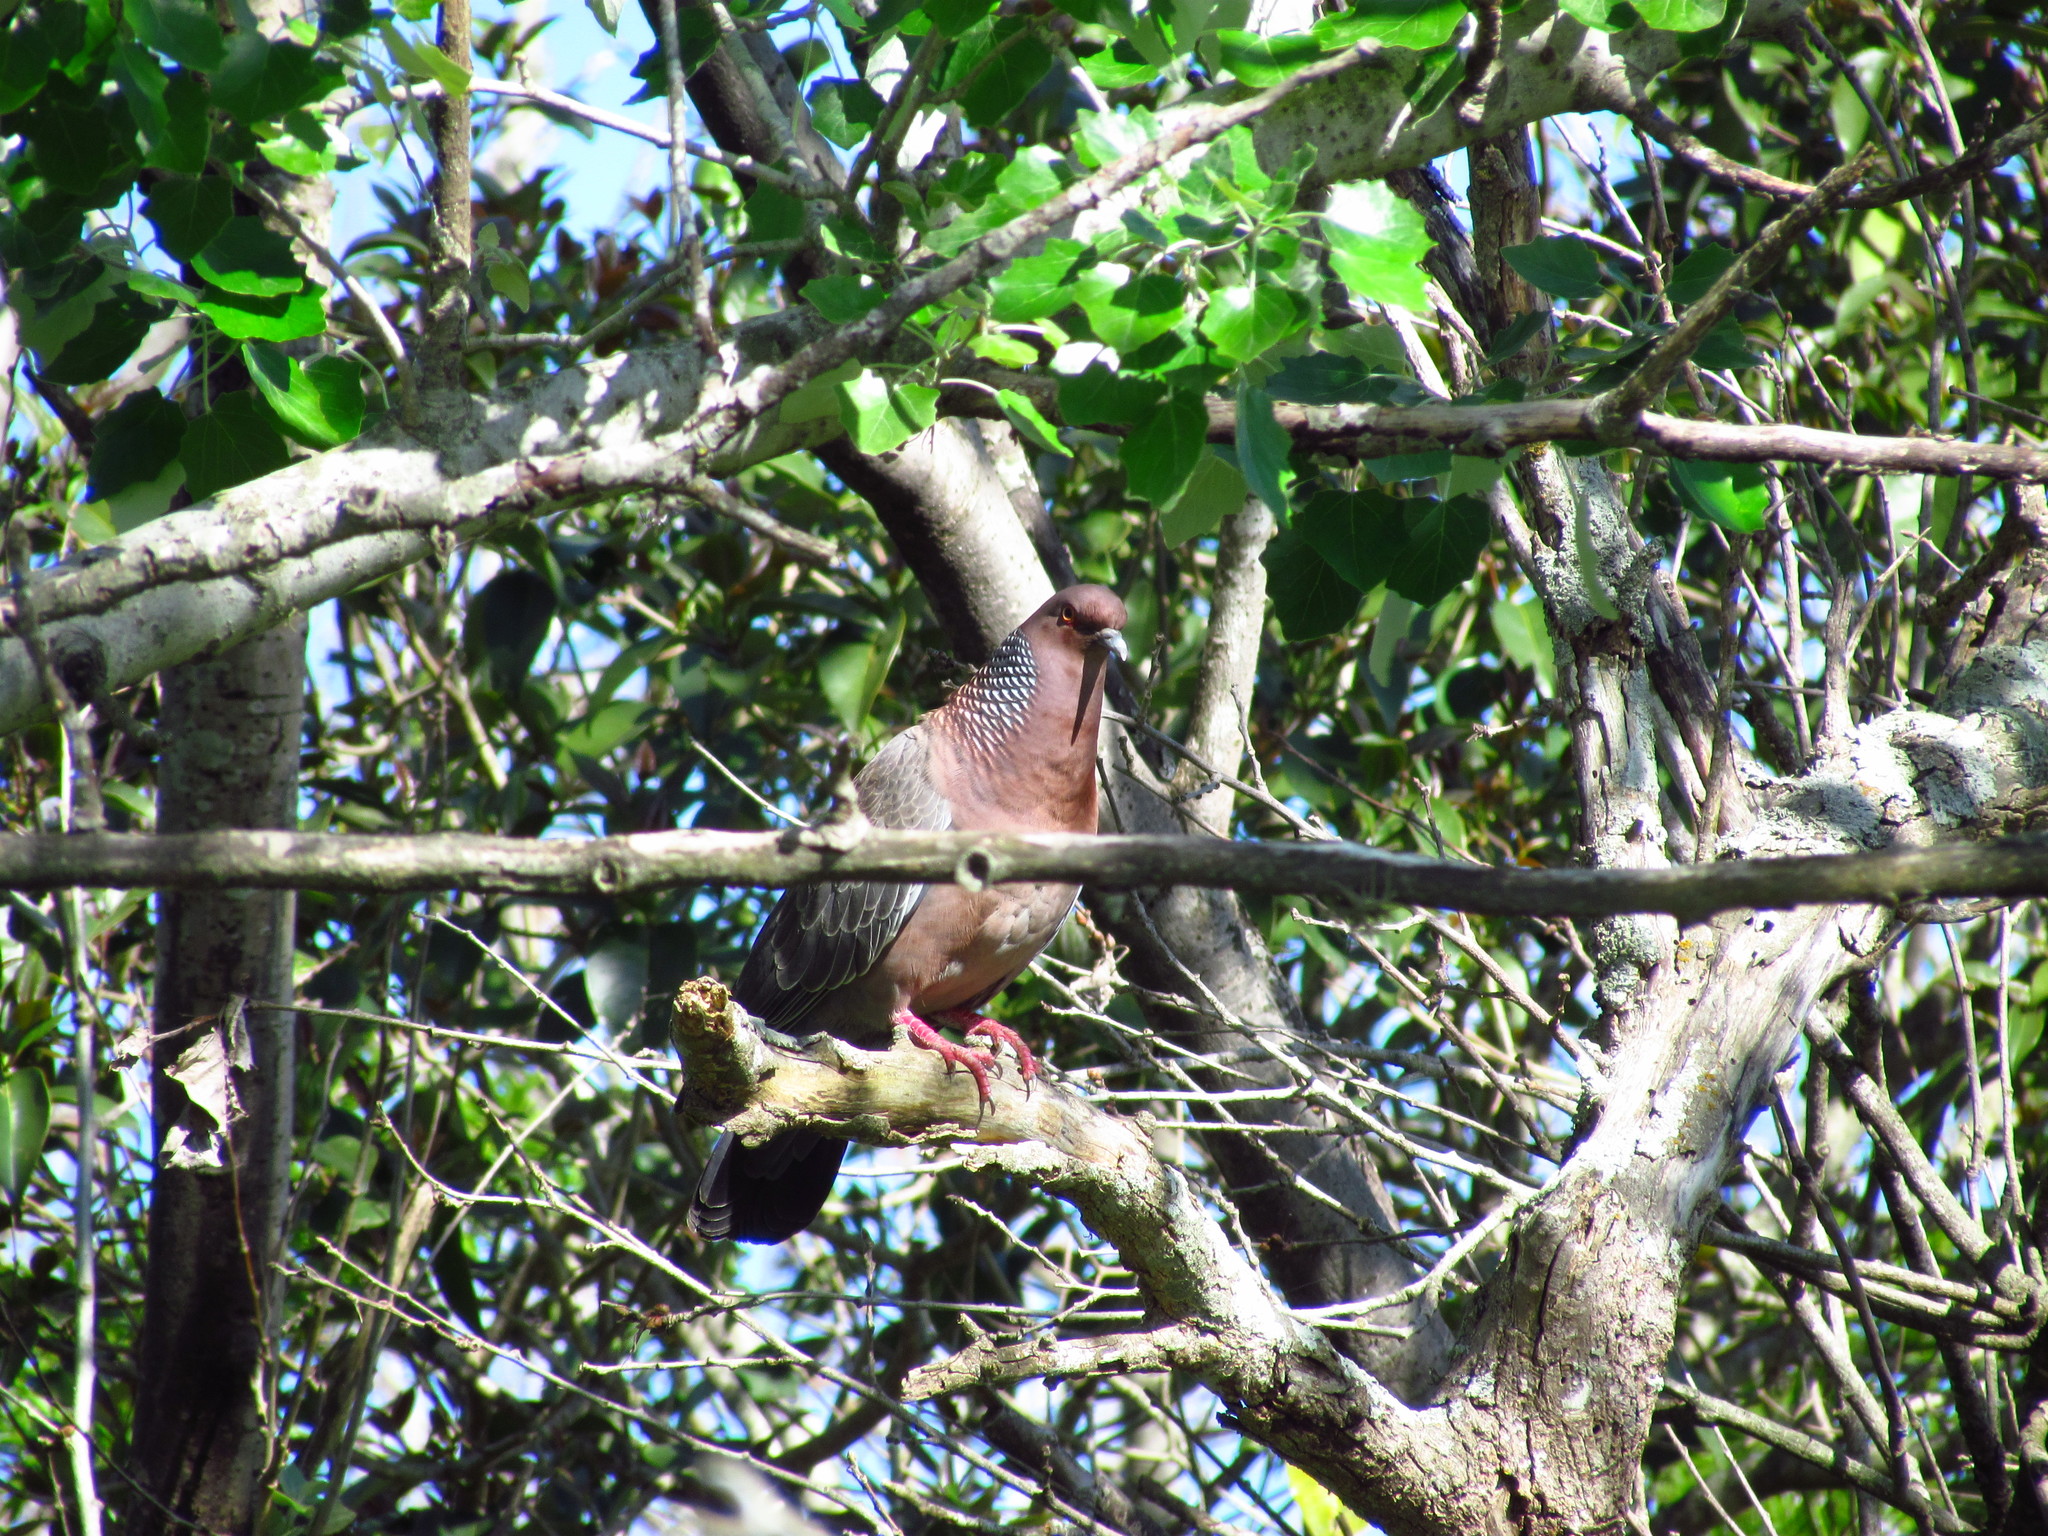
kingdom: Animalia
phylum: Chordata
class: Aves
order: Columbiformes
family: Columbidae
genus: Patagioenas
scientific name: Patagioenas picazuro
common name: Picazuro pigeon
